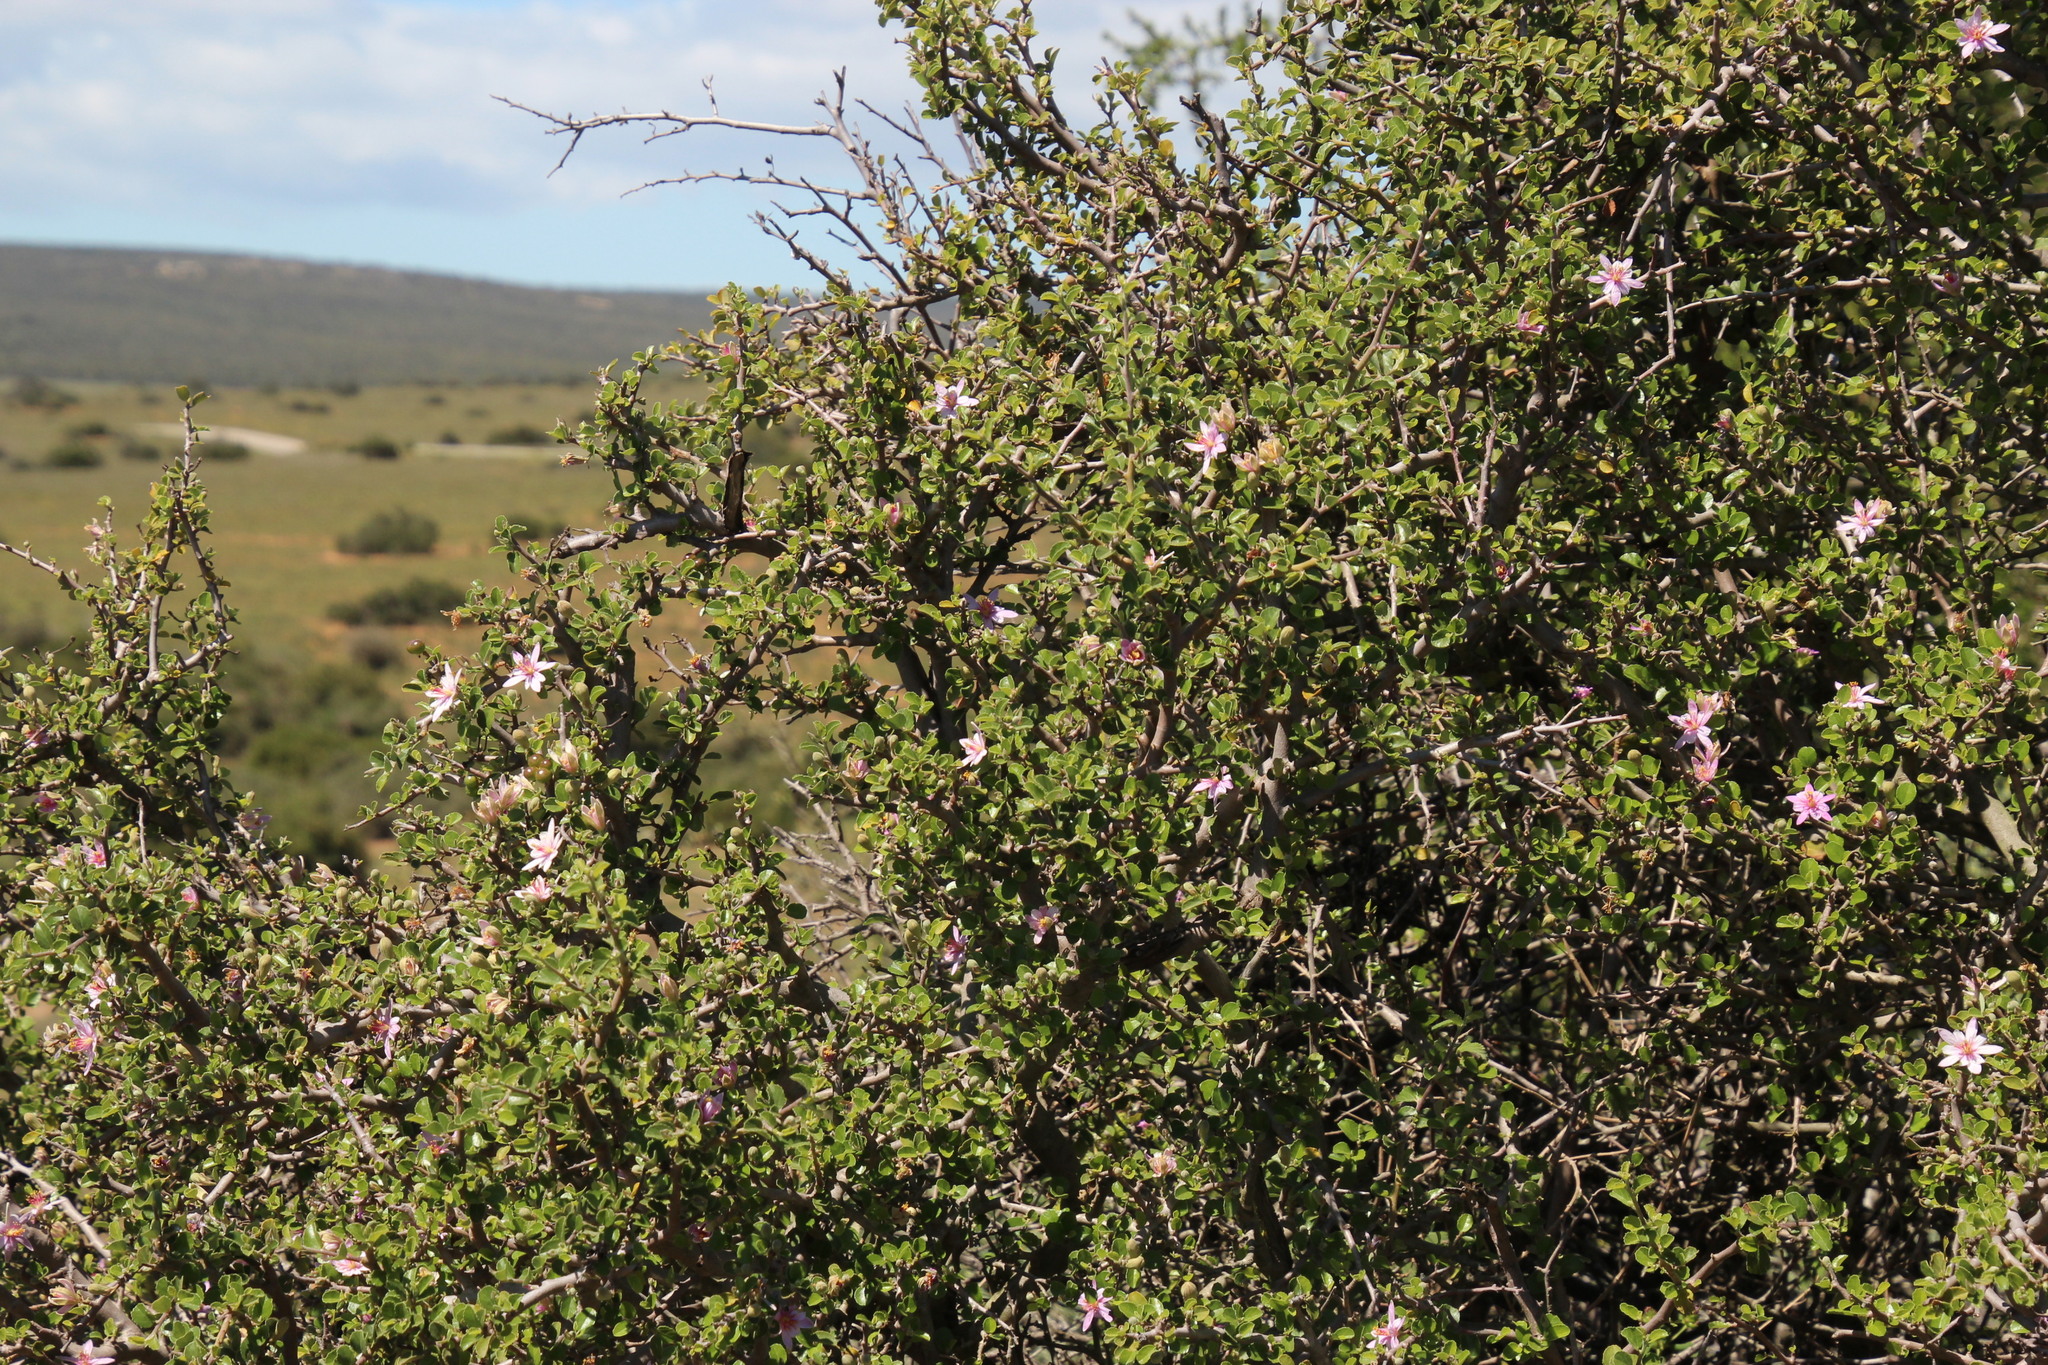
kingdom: Plantae
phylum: Tracheophyta
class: Magnoliopsida
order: Malvales
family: Malvaceae
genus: Grewia
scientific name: Grewia robusta
